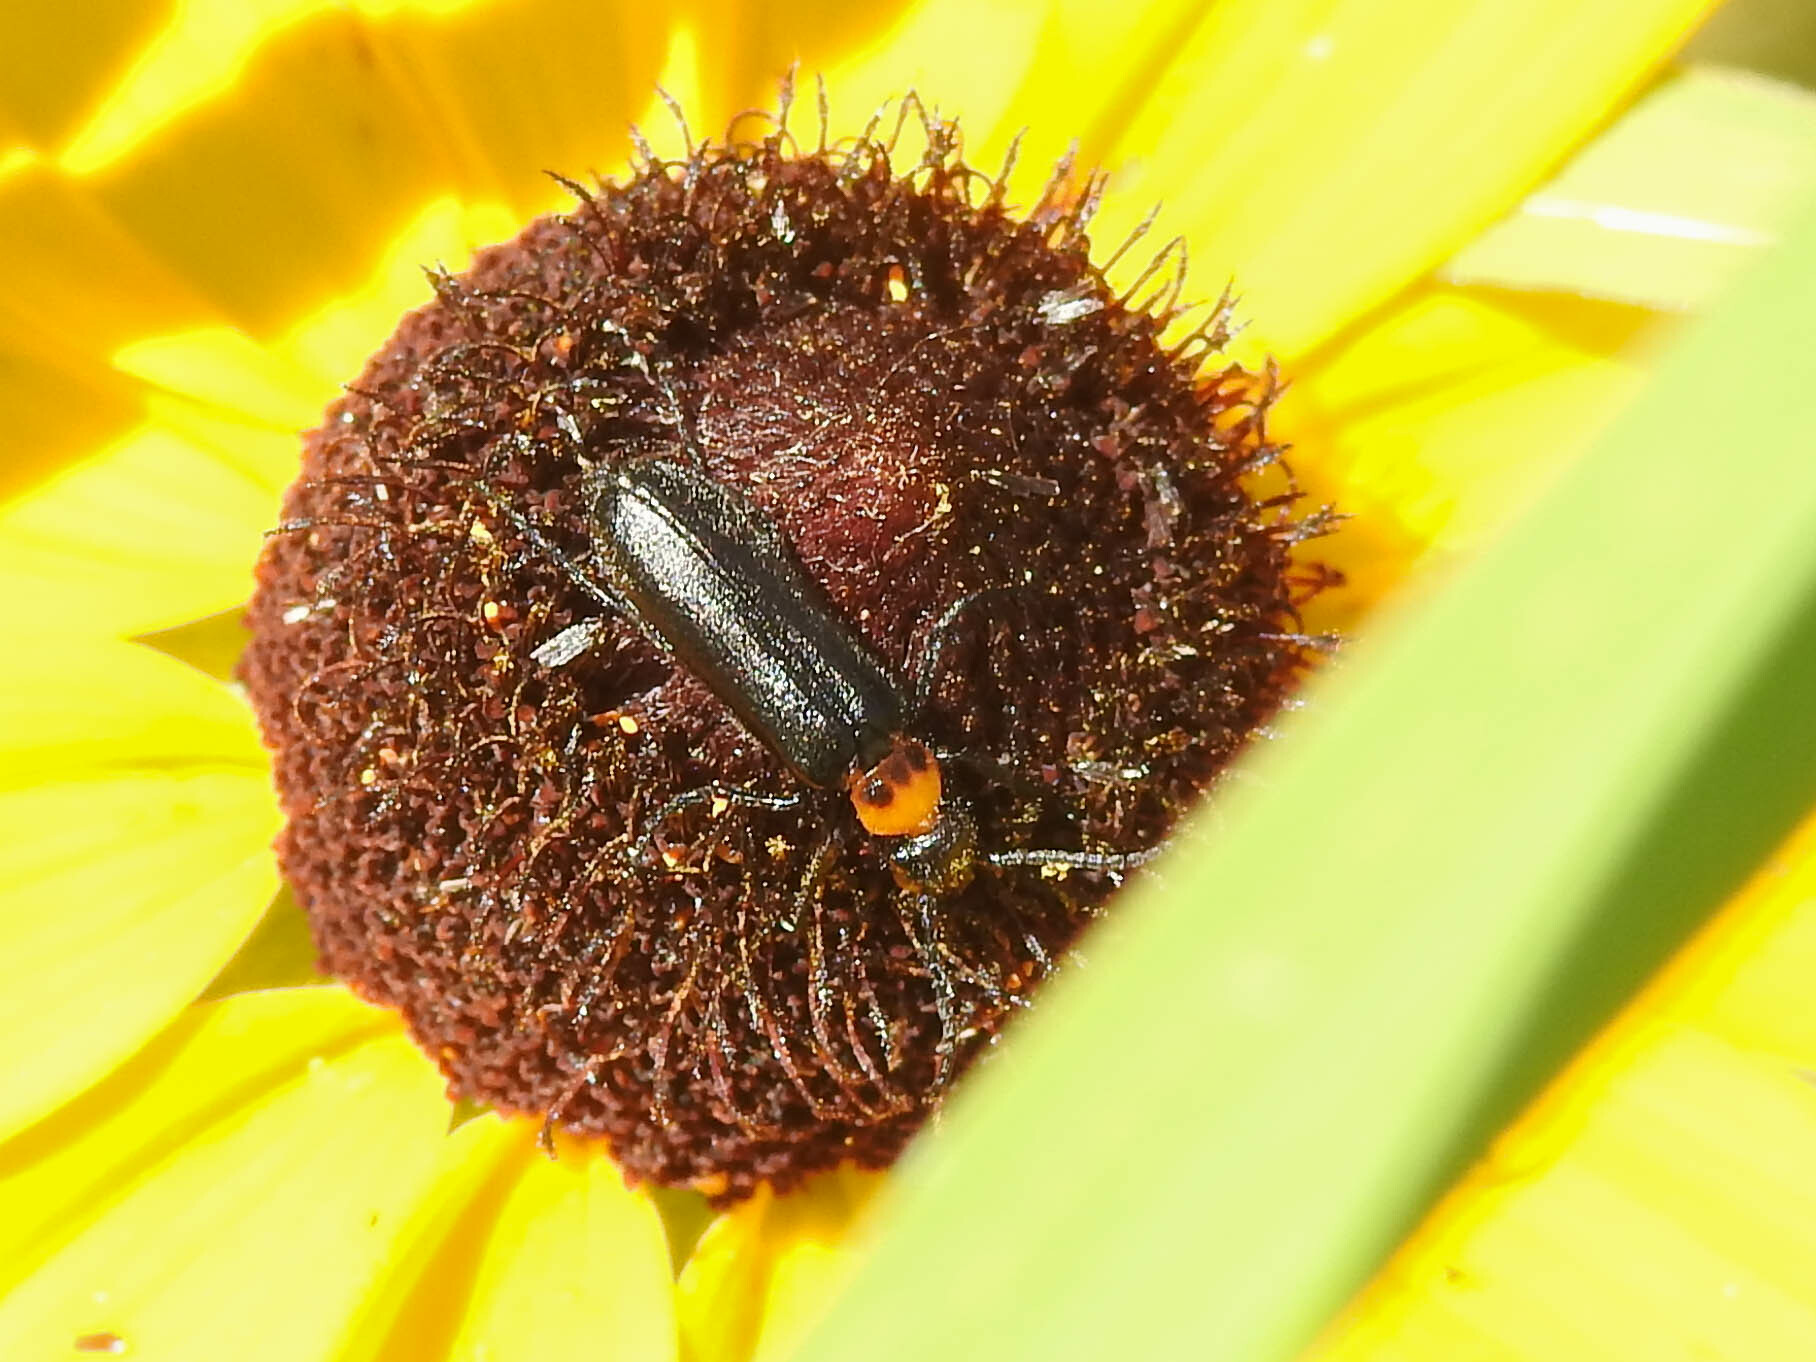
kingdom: Animalia
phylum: Arthropoda
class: Insecta
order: Coleoptera
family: Meloidae
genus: Nemognatha
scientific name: Nemognatha nemorensis
